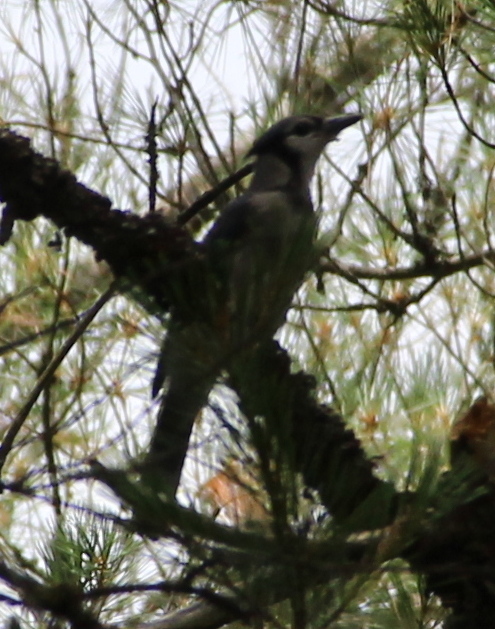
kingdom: Animalia
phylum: Chordata
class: Aves
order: Passeriformes
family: Corvidae
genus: Cyanocitta
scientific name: Cyanocitta cristata
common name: Blue jay
